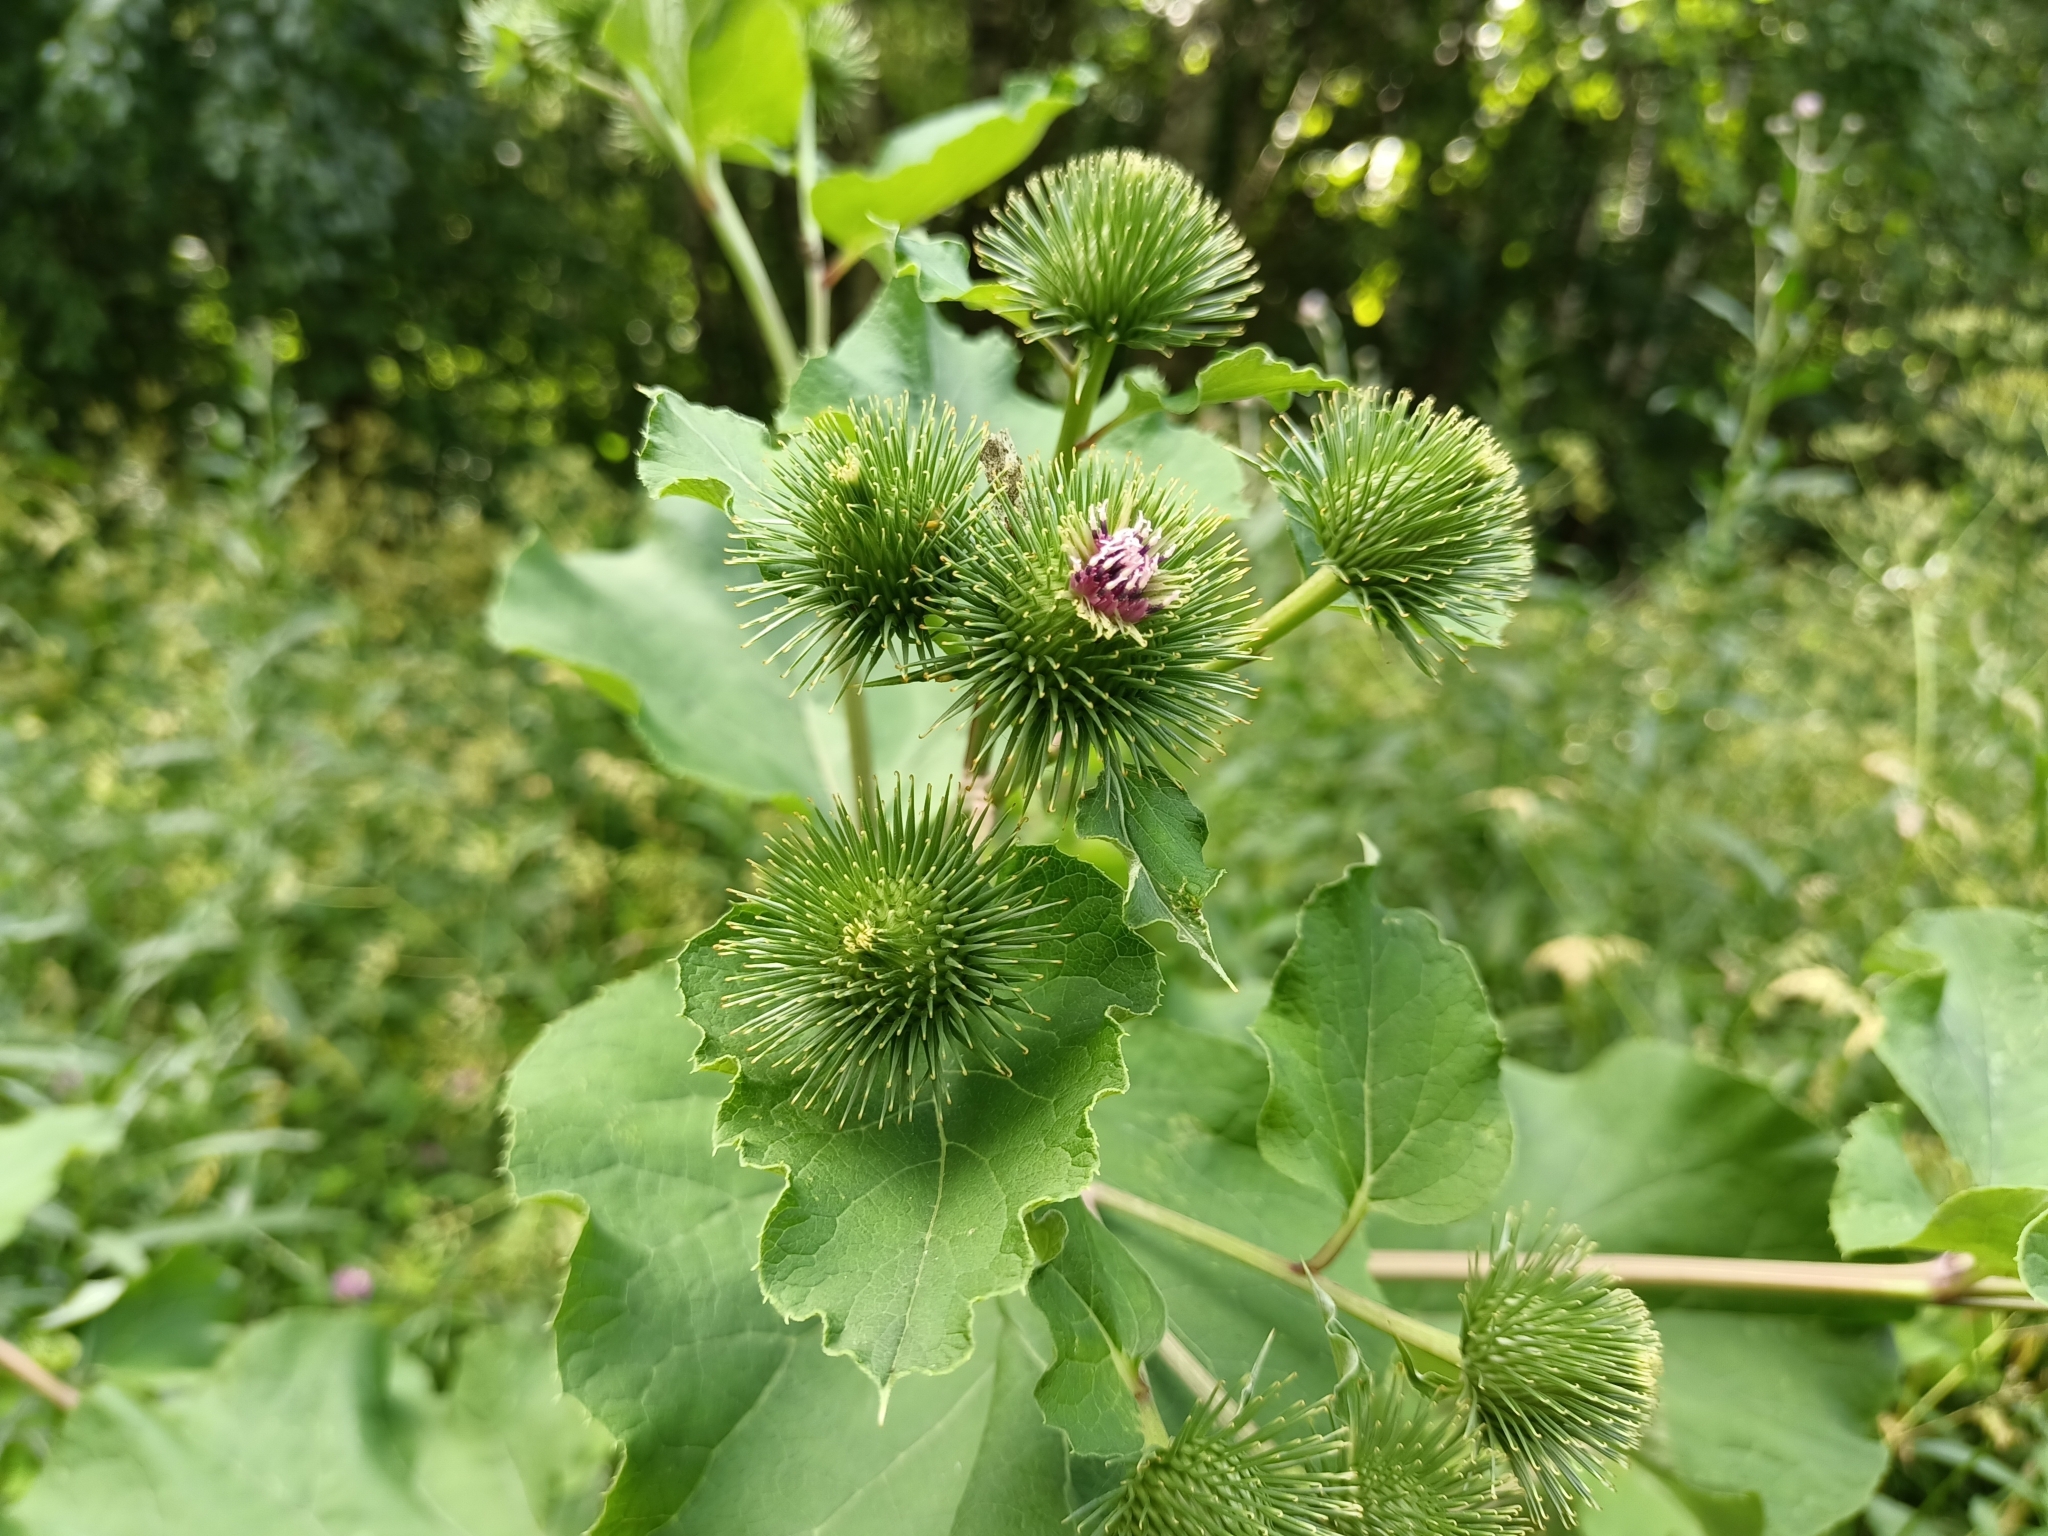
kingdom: Plantae
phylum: Tracheophyta
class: Magnoliopsida
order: Asterales
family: Asteraceae
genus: Arctium
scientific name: Arctium lappa
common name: Greater burdock
